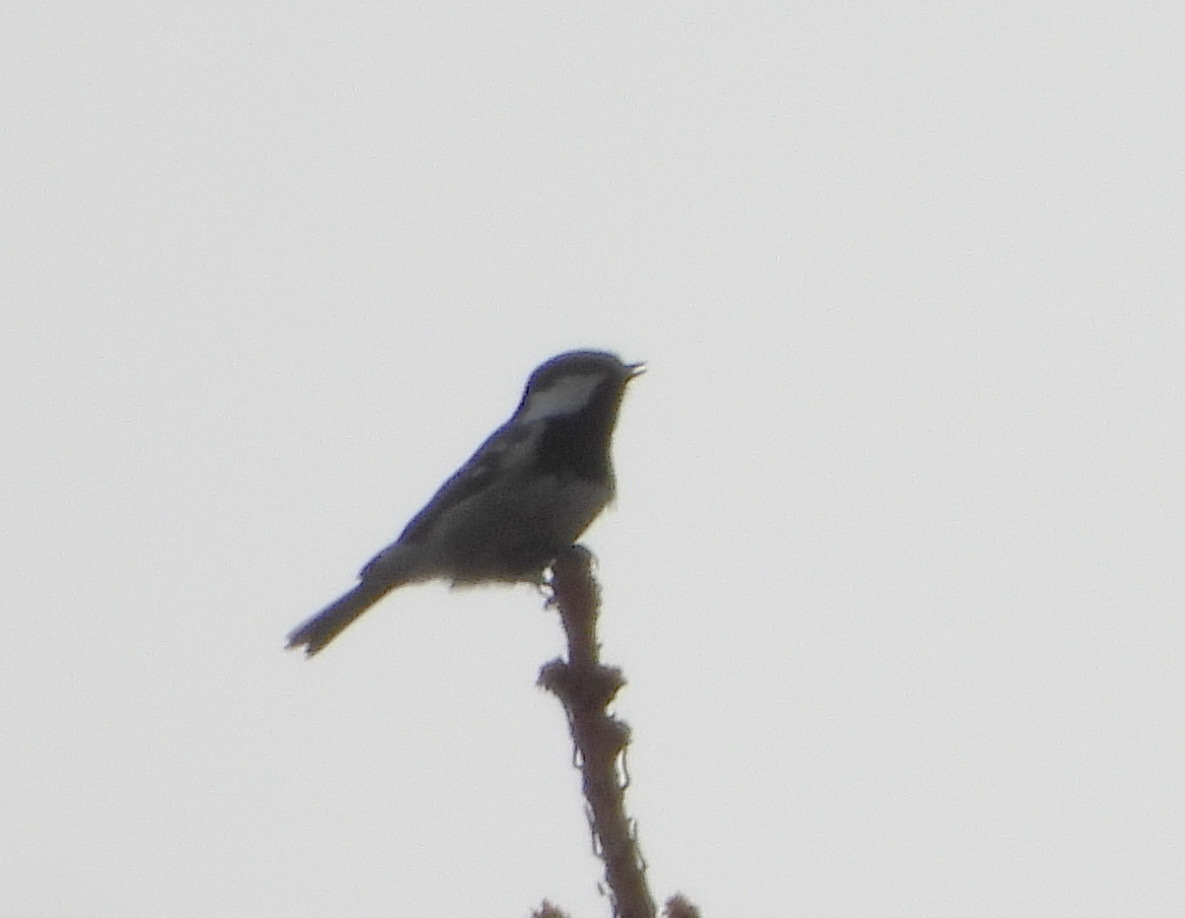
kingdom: Animalia
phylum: Chordata
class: Aves
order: Passeriformes
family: Paridae
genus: Periparus
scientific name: Periparus ater
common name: Coal tit
